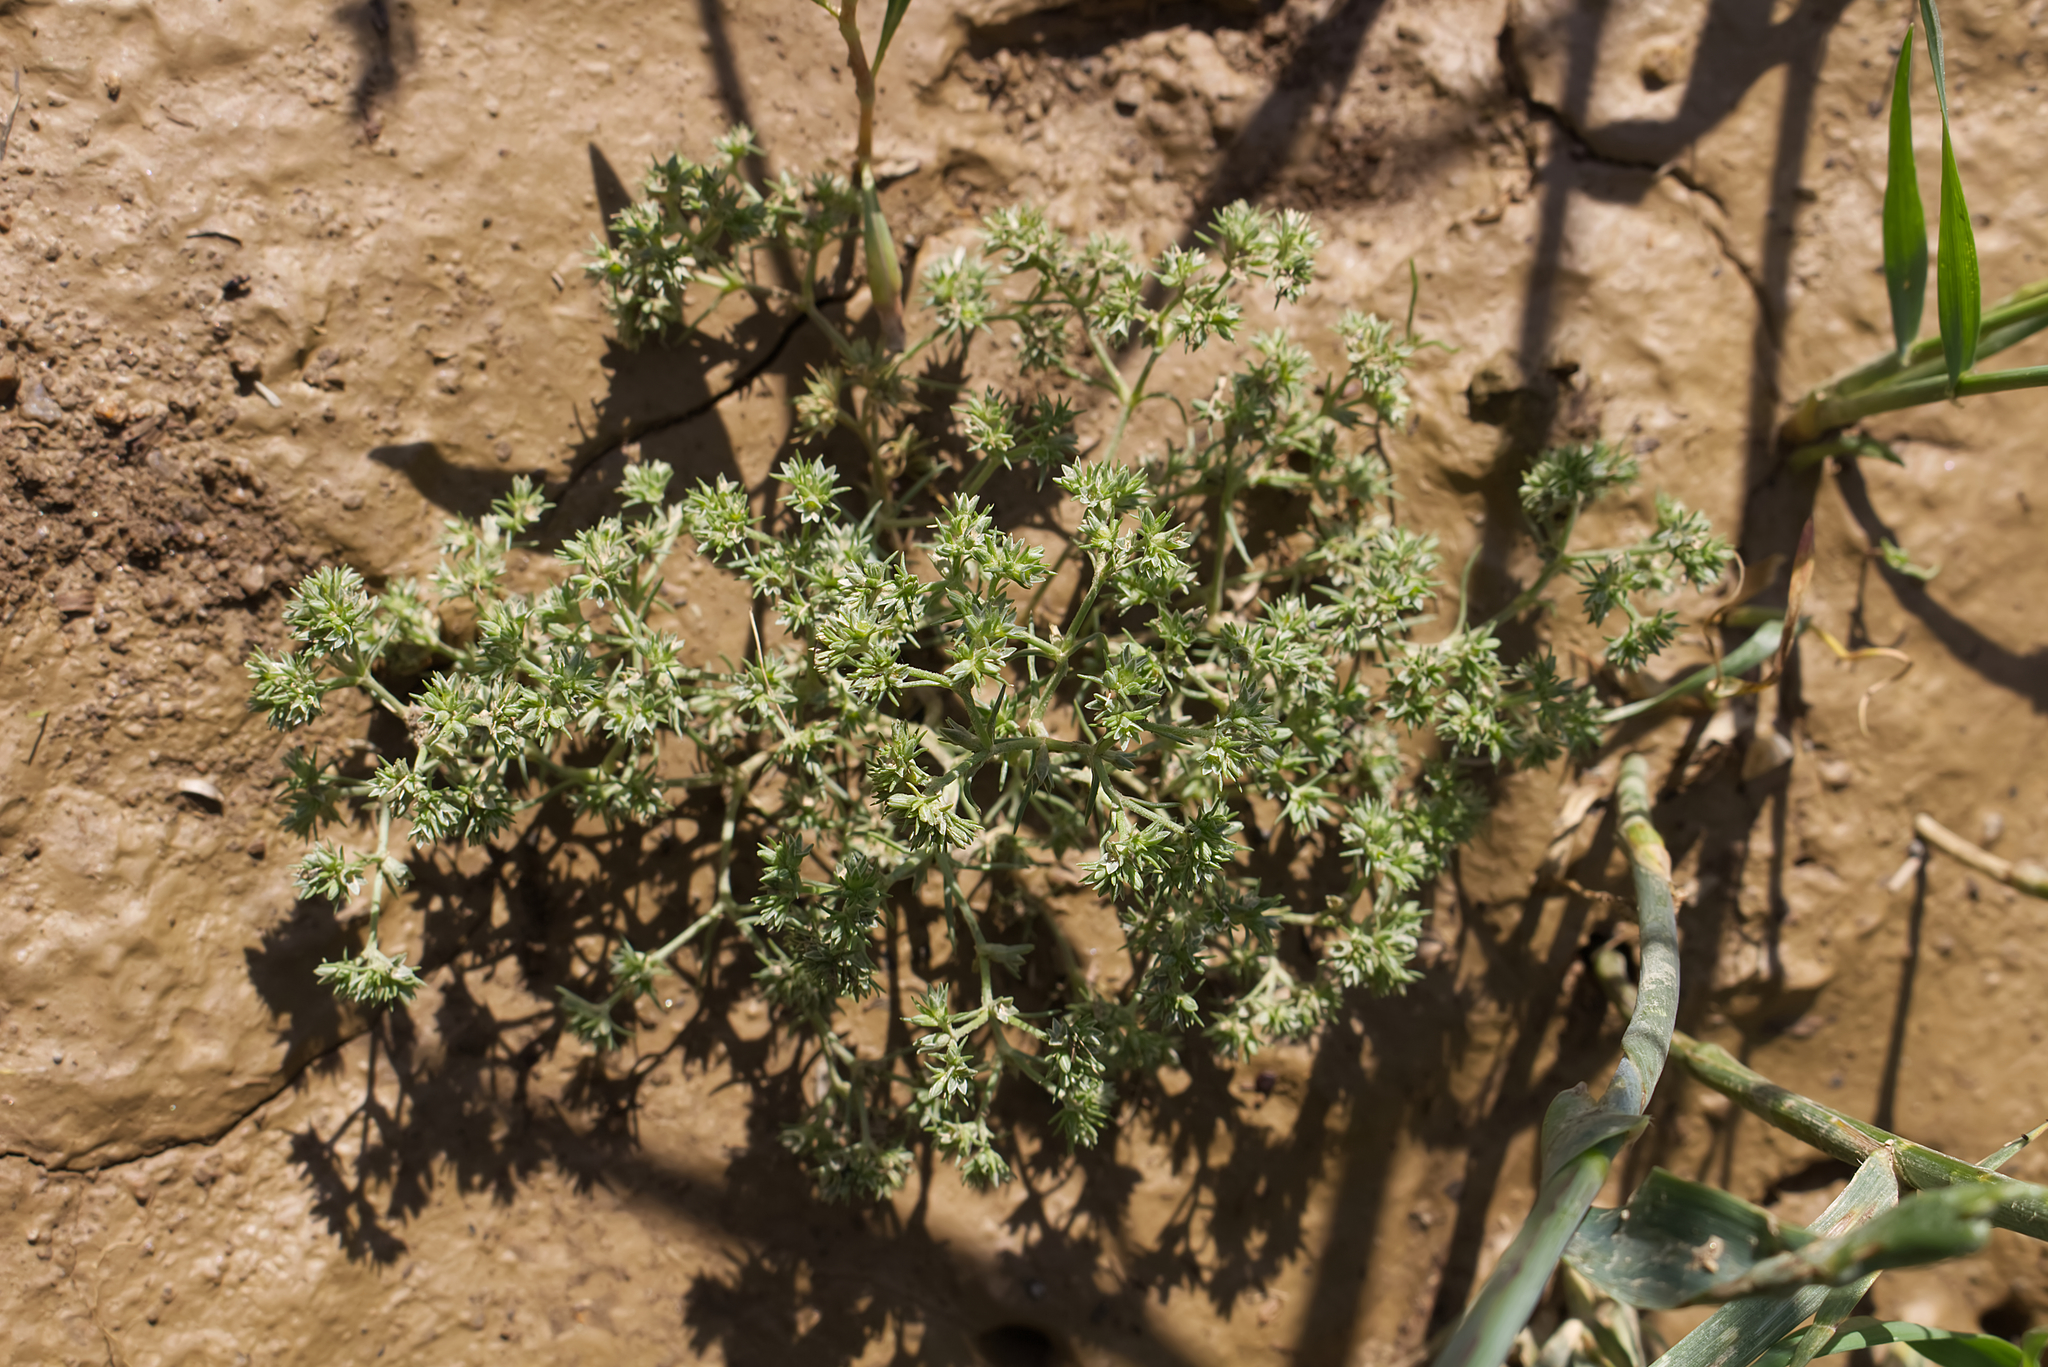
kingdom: Plantae
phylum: Tracheophyta
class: Magnoliopsida
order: Caryophyllales
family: Caryophyllaceae
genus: Scleranthus
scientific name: Scleranthus annuus
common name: Annual knawel
